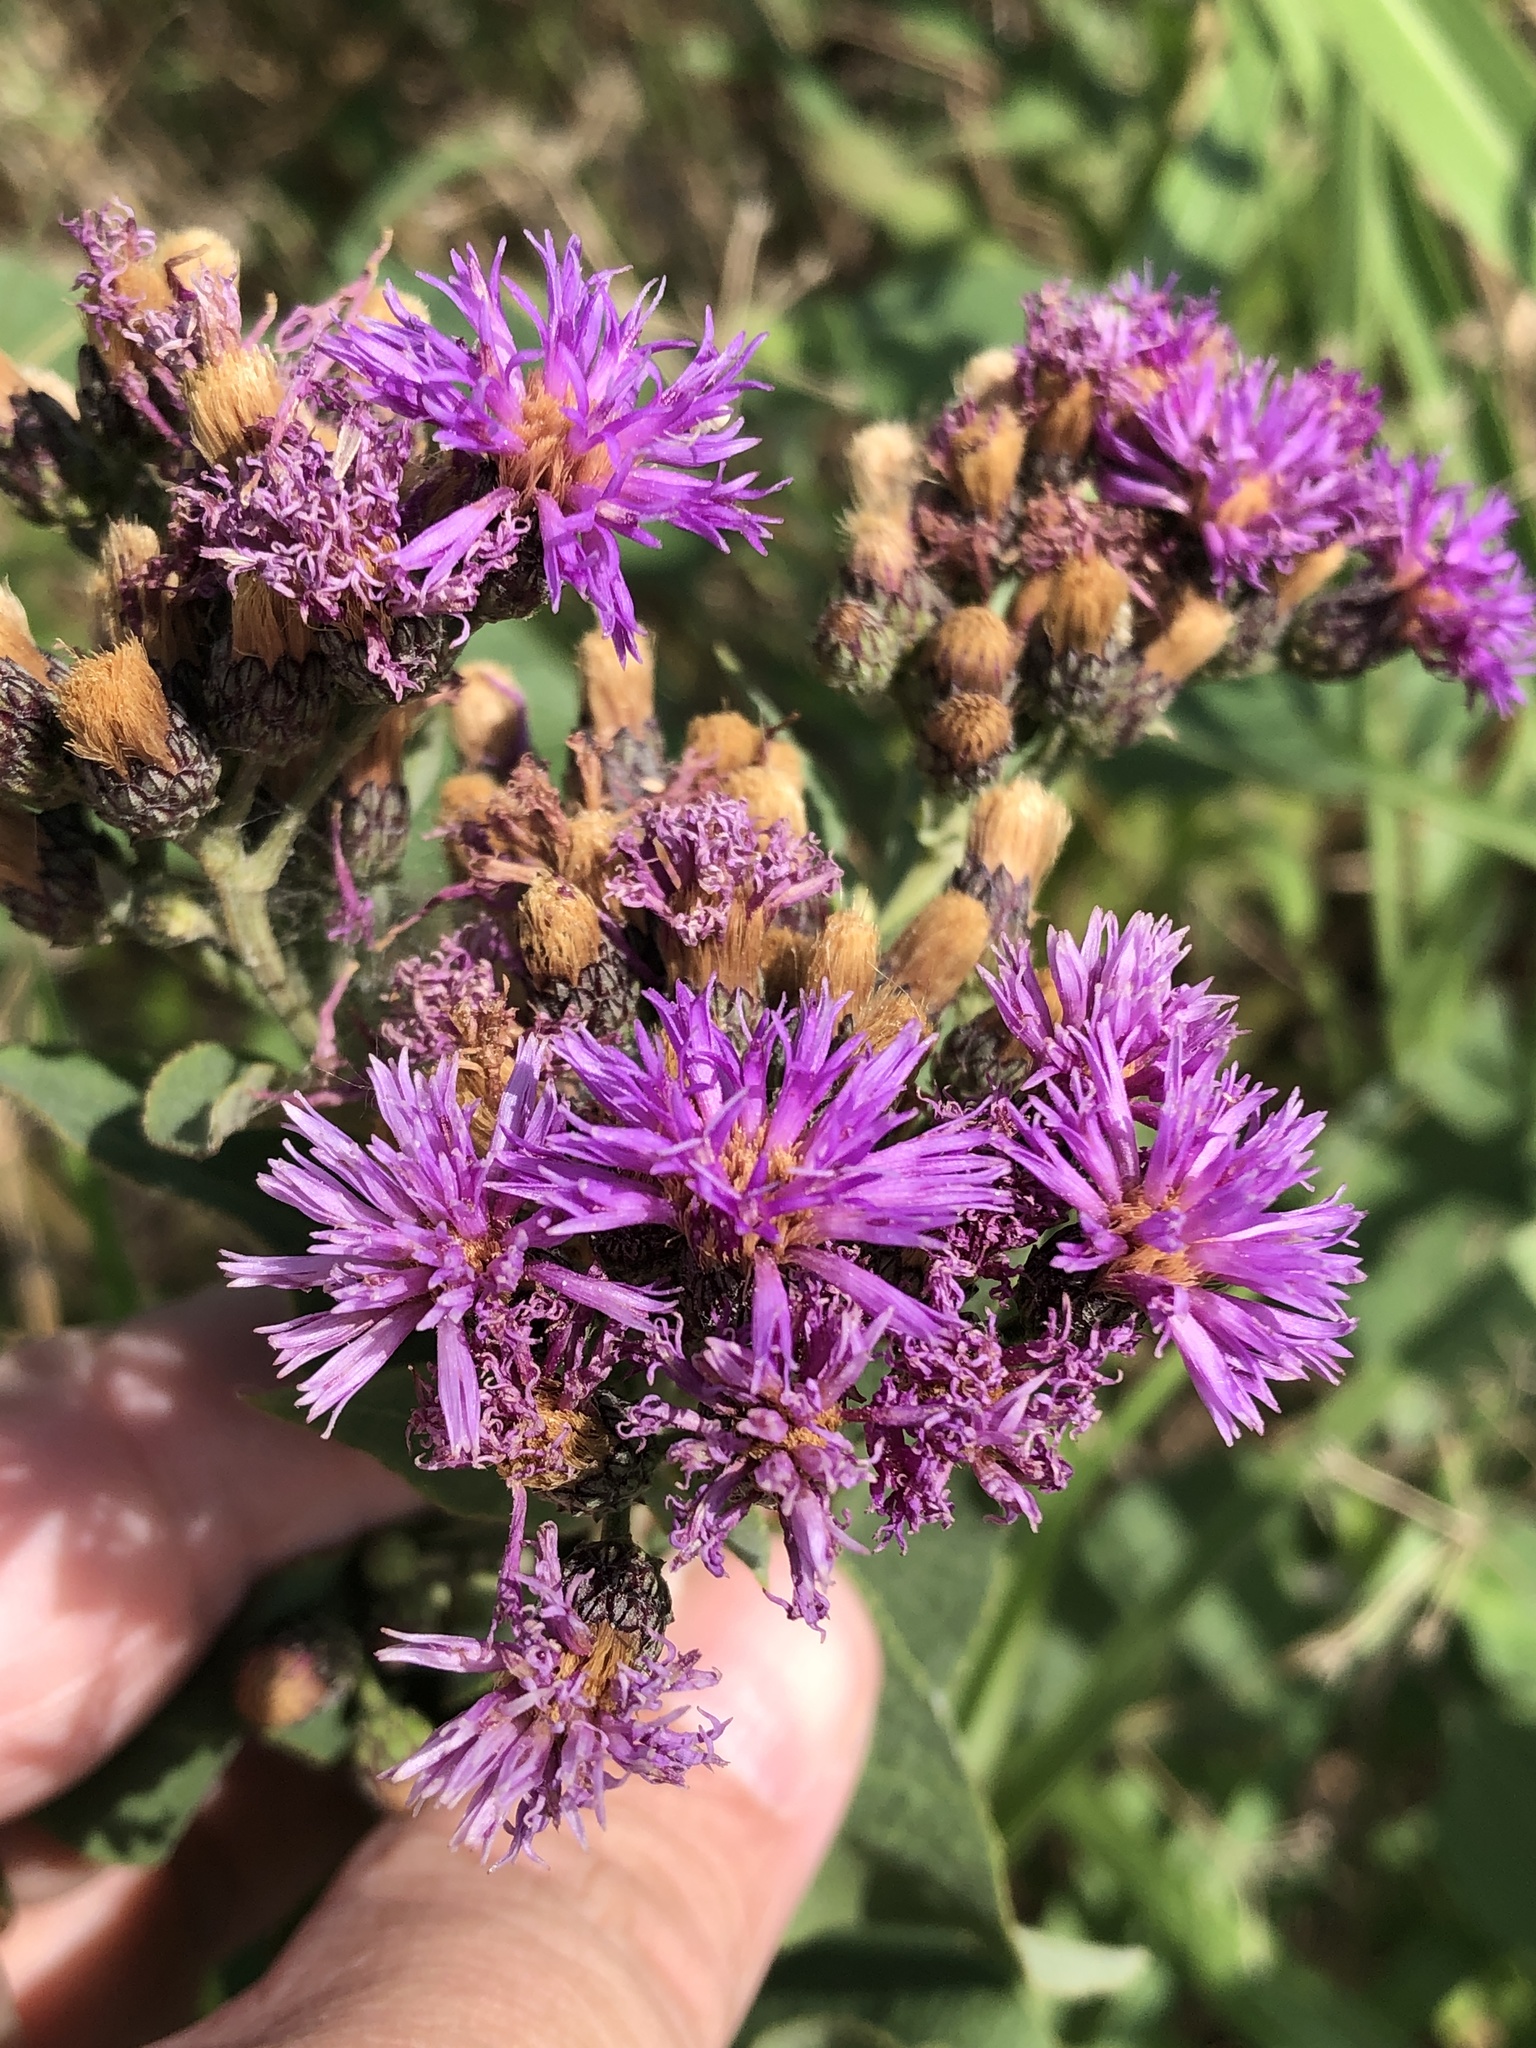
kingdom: Plantae
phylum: Tracheophyta
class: Magnoliopsida
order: Asterales
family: Asteraceae
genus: Vernonia
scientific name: Vernonia baldwinii
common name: Western ironweed
